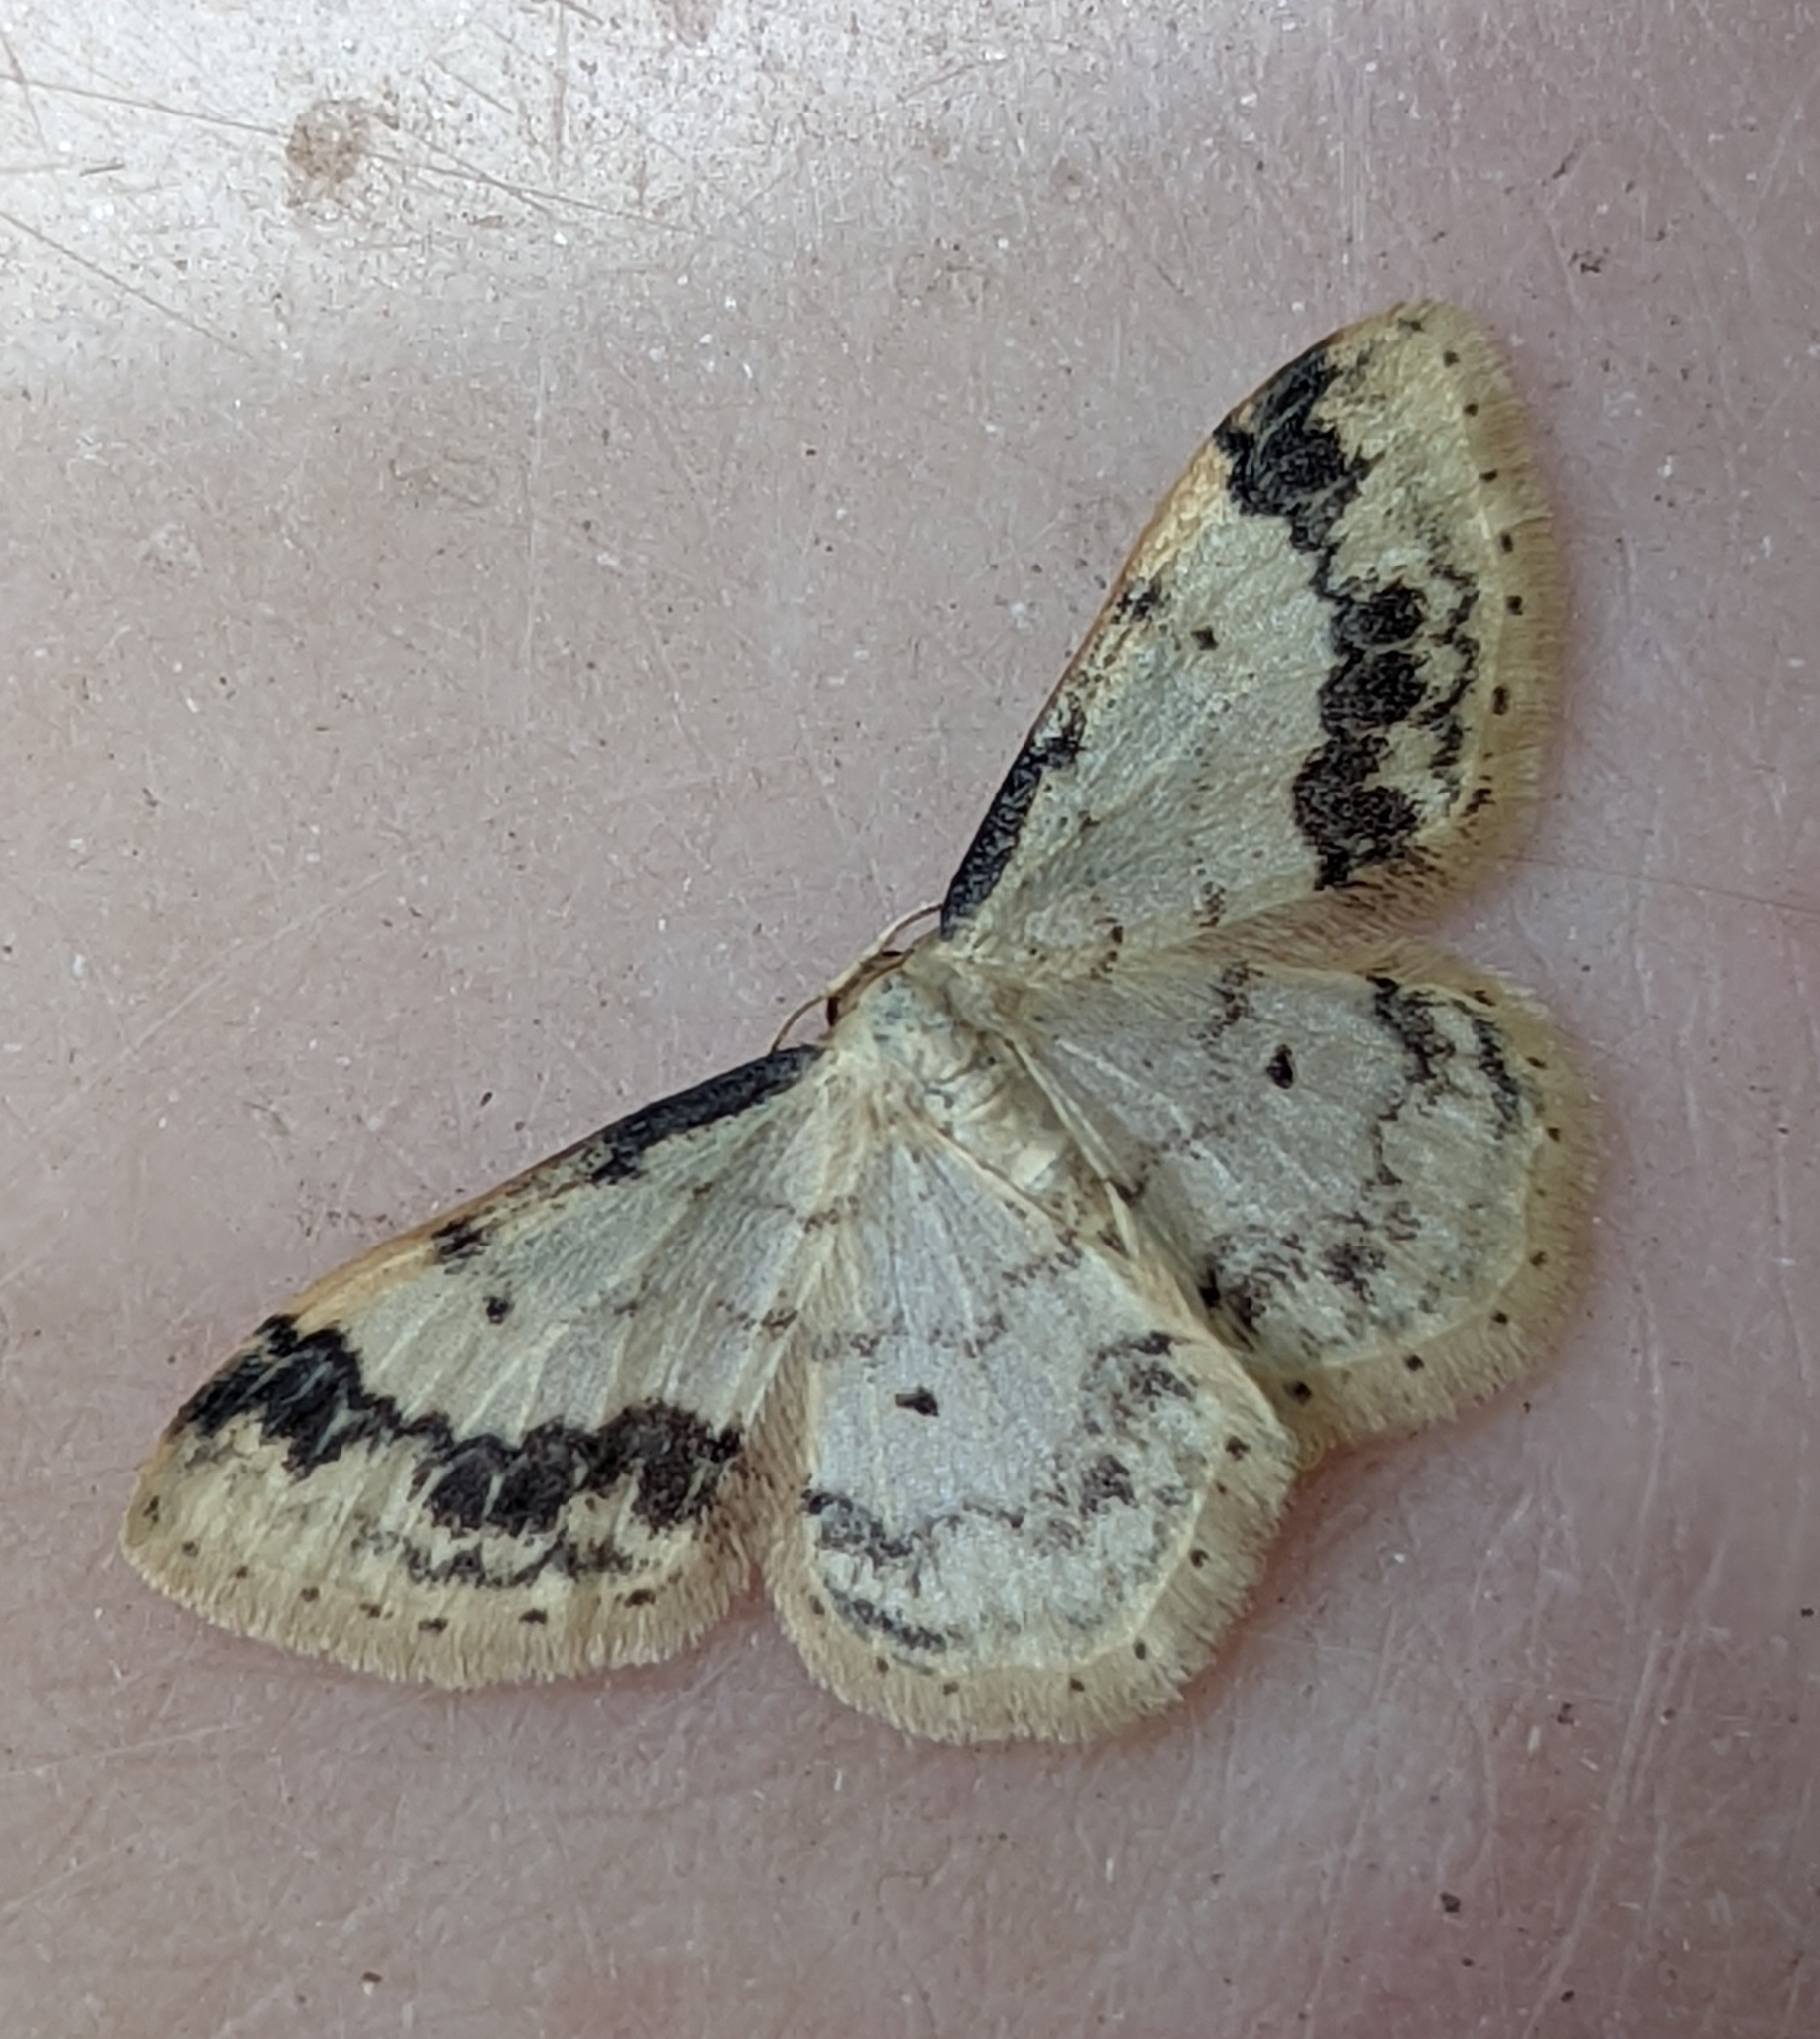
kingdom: Animalia
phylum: Arthropoda
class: Insecta
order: Lepidoptera
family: Geometridae
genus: Idaea
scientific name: Idaea trigeminata
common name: Treble brown spot
